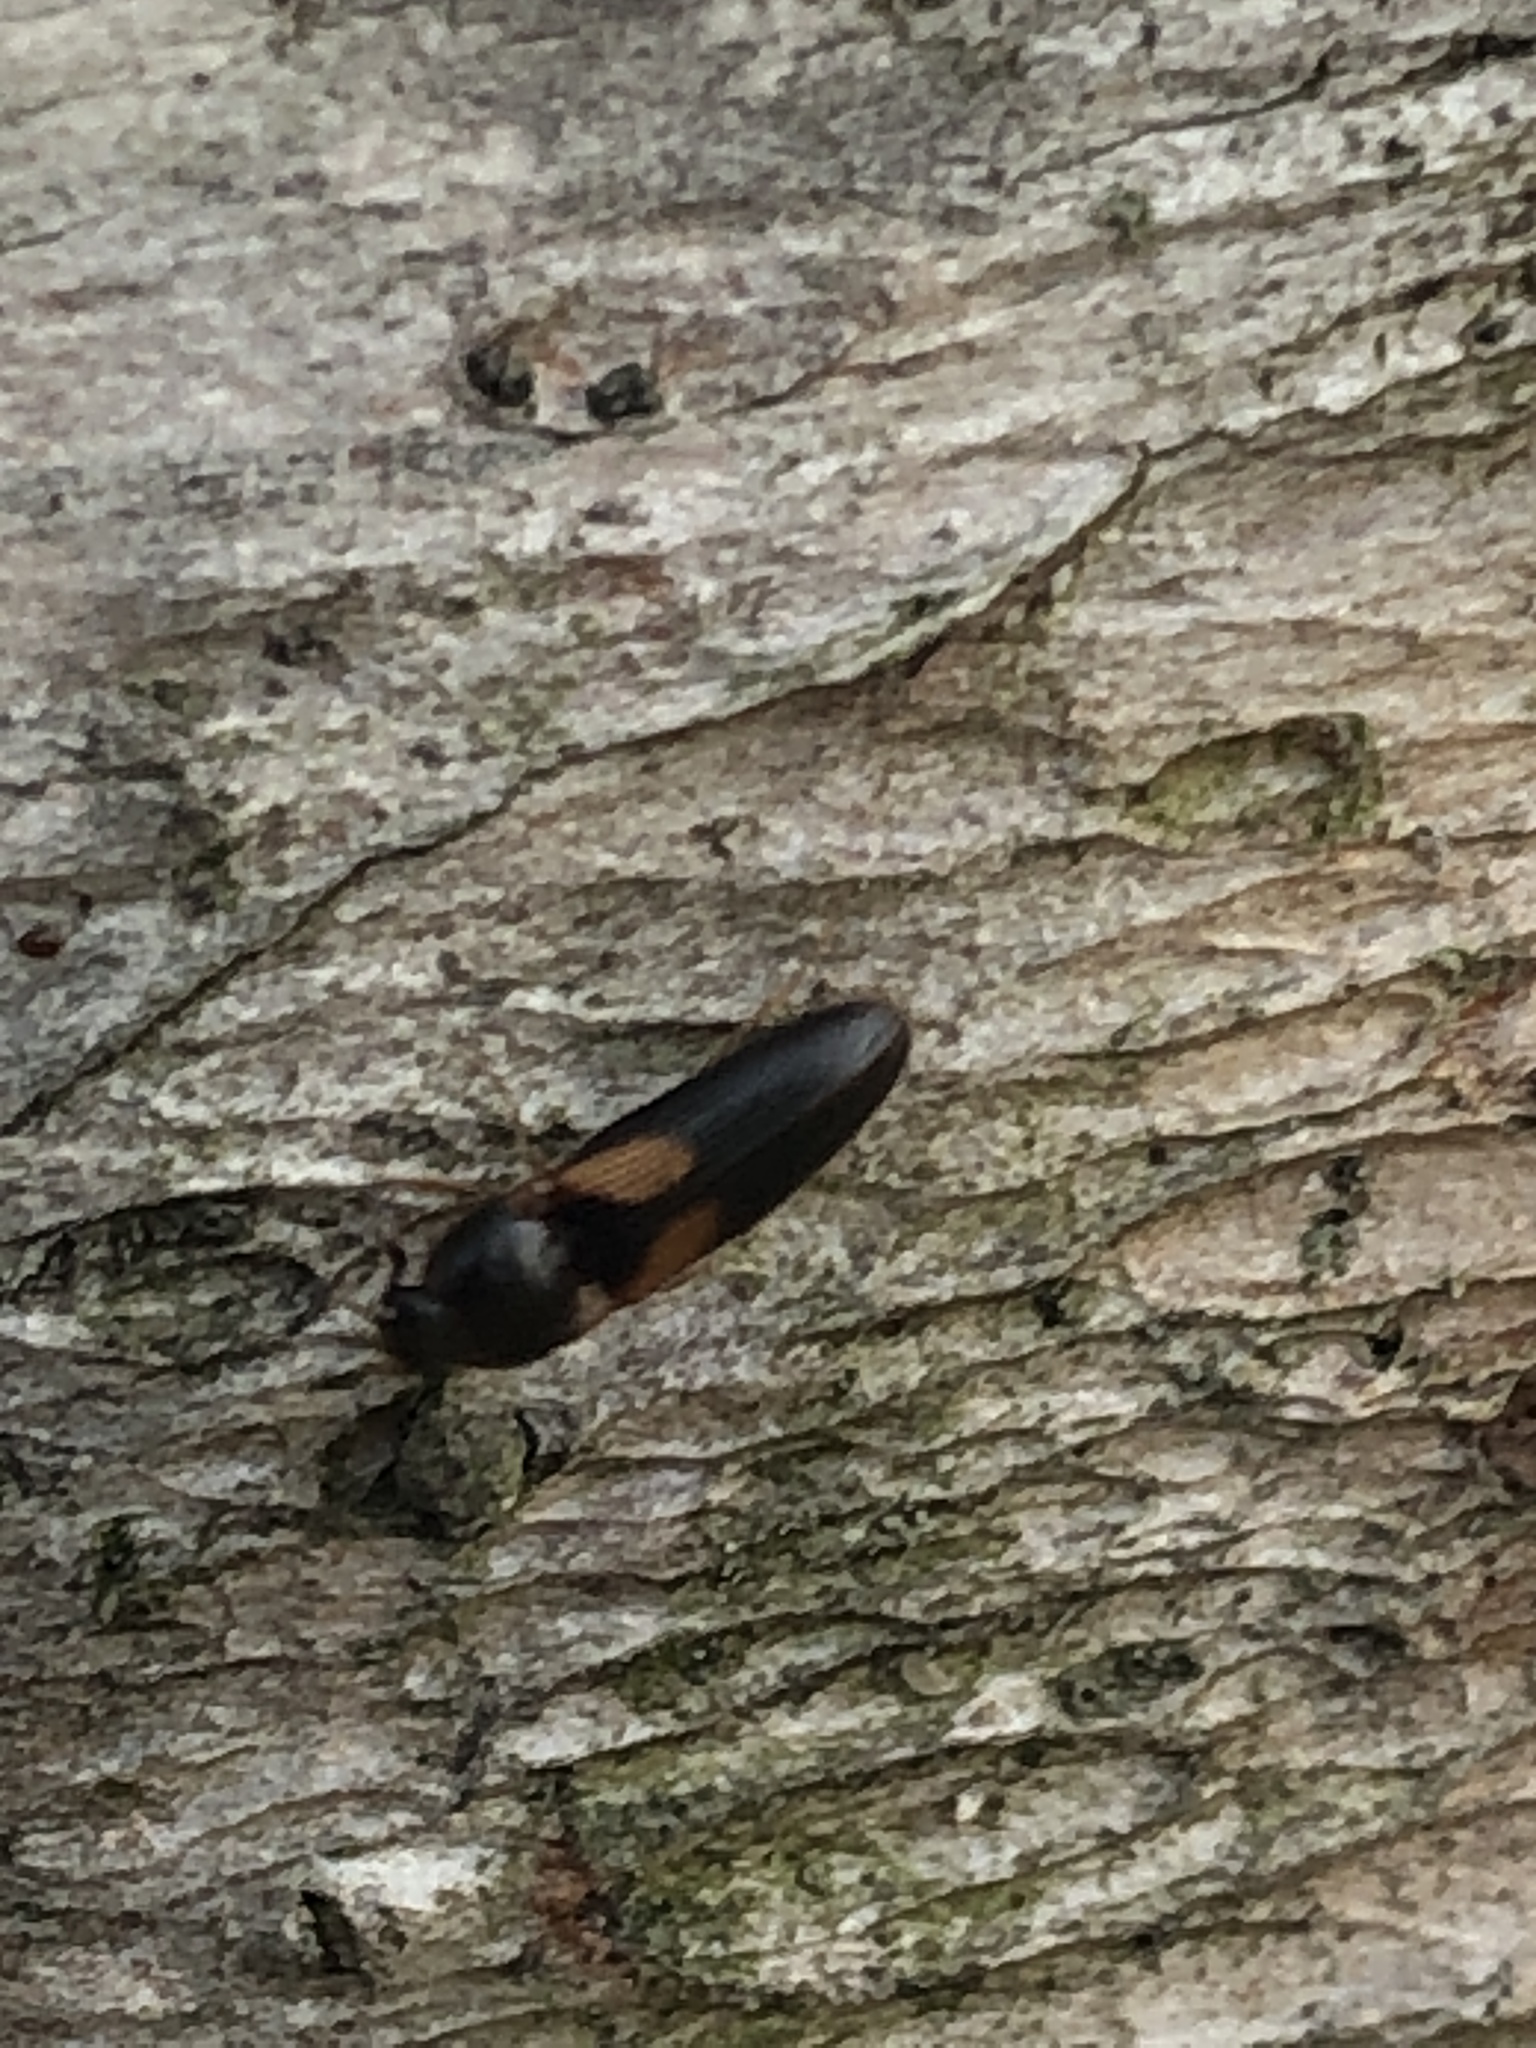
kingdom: Animalia
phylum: Arthropoda
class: Insecta
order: Coleoptera
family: Elateridae
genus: Ampedus
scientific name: Ampedus areolatus
